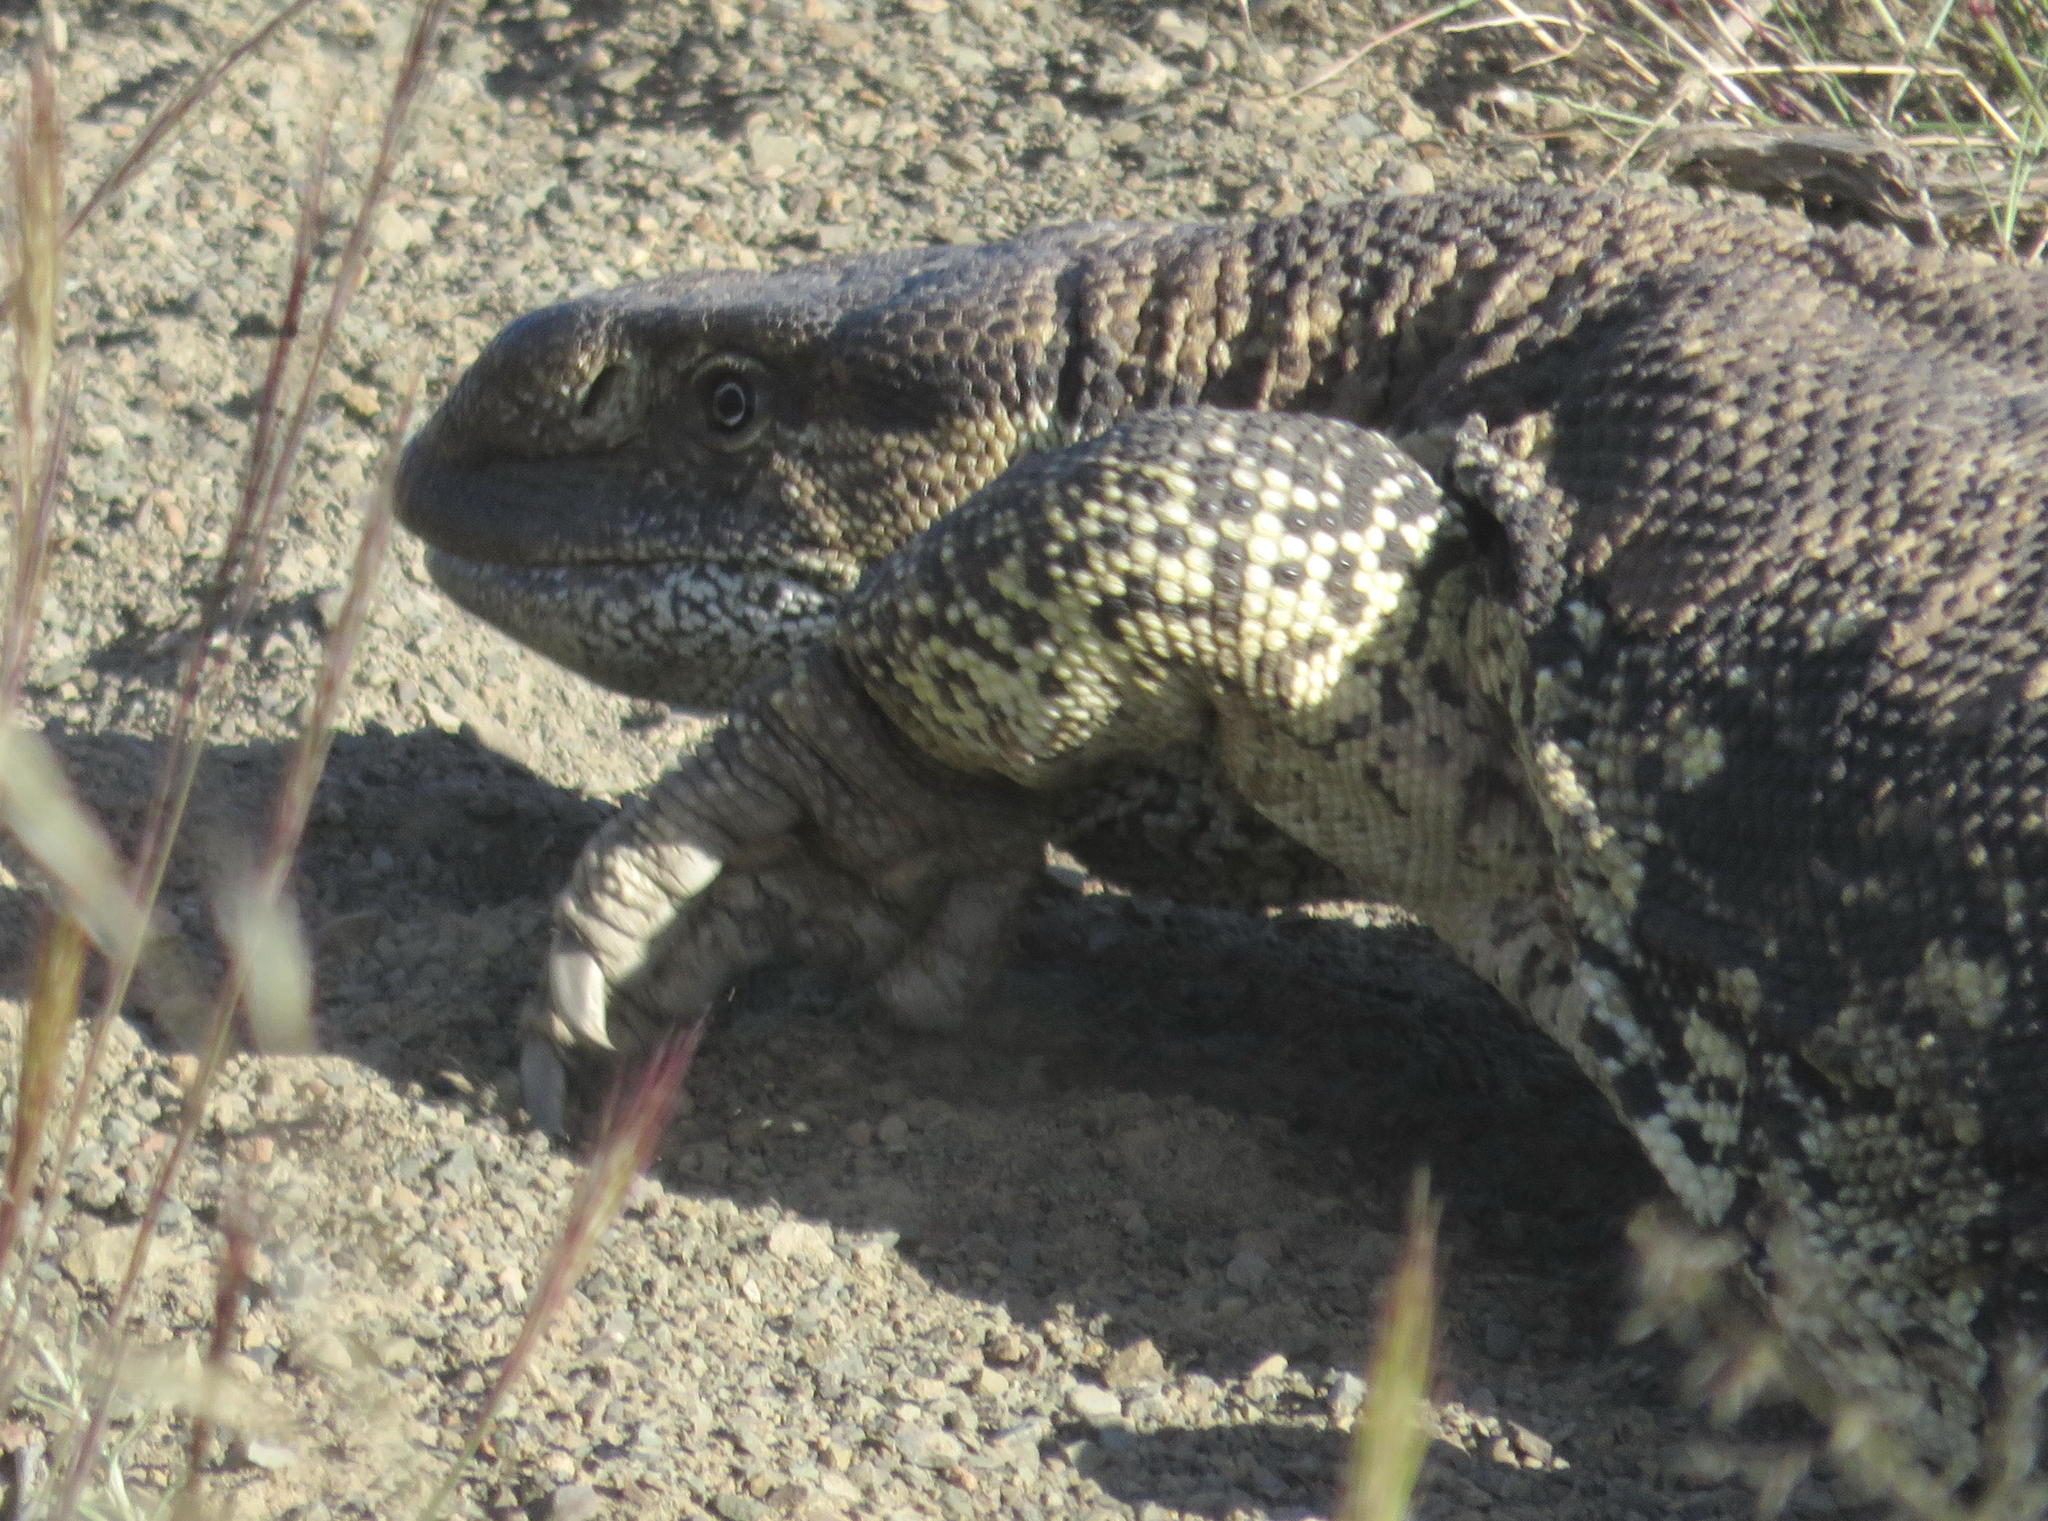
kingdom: Animalia
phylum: Chordata
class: Squamata
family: Varanidae
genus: Varanus
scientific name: Varanus albigularis
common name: White-throated monitor
